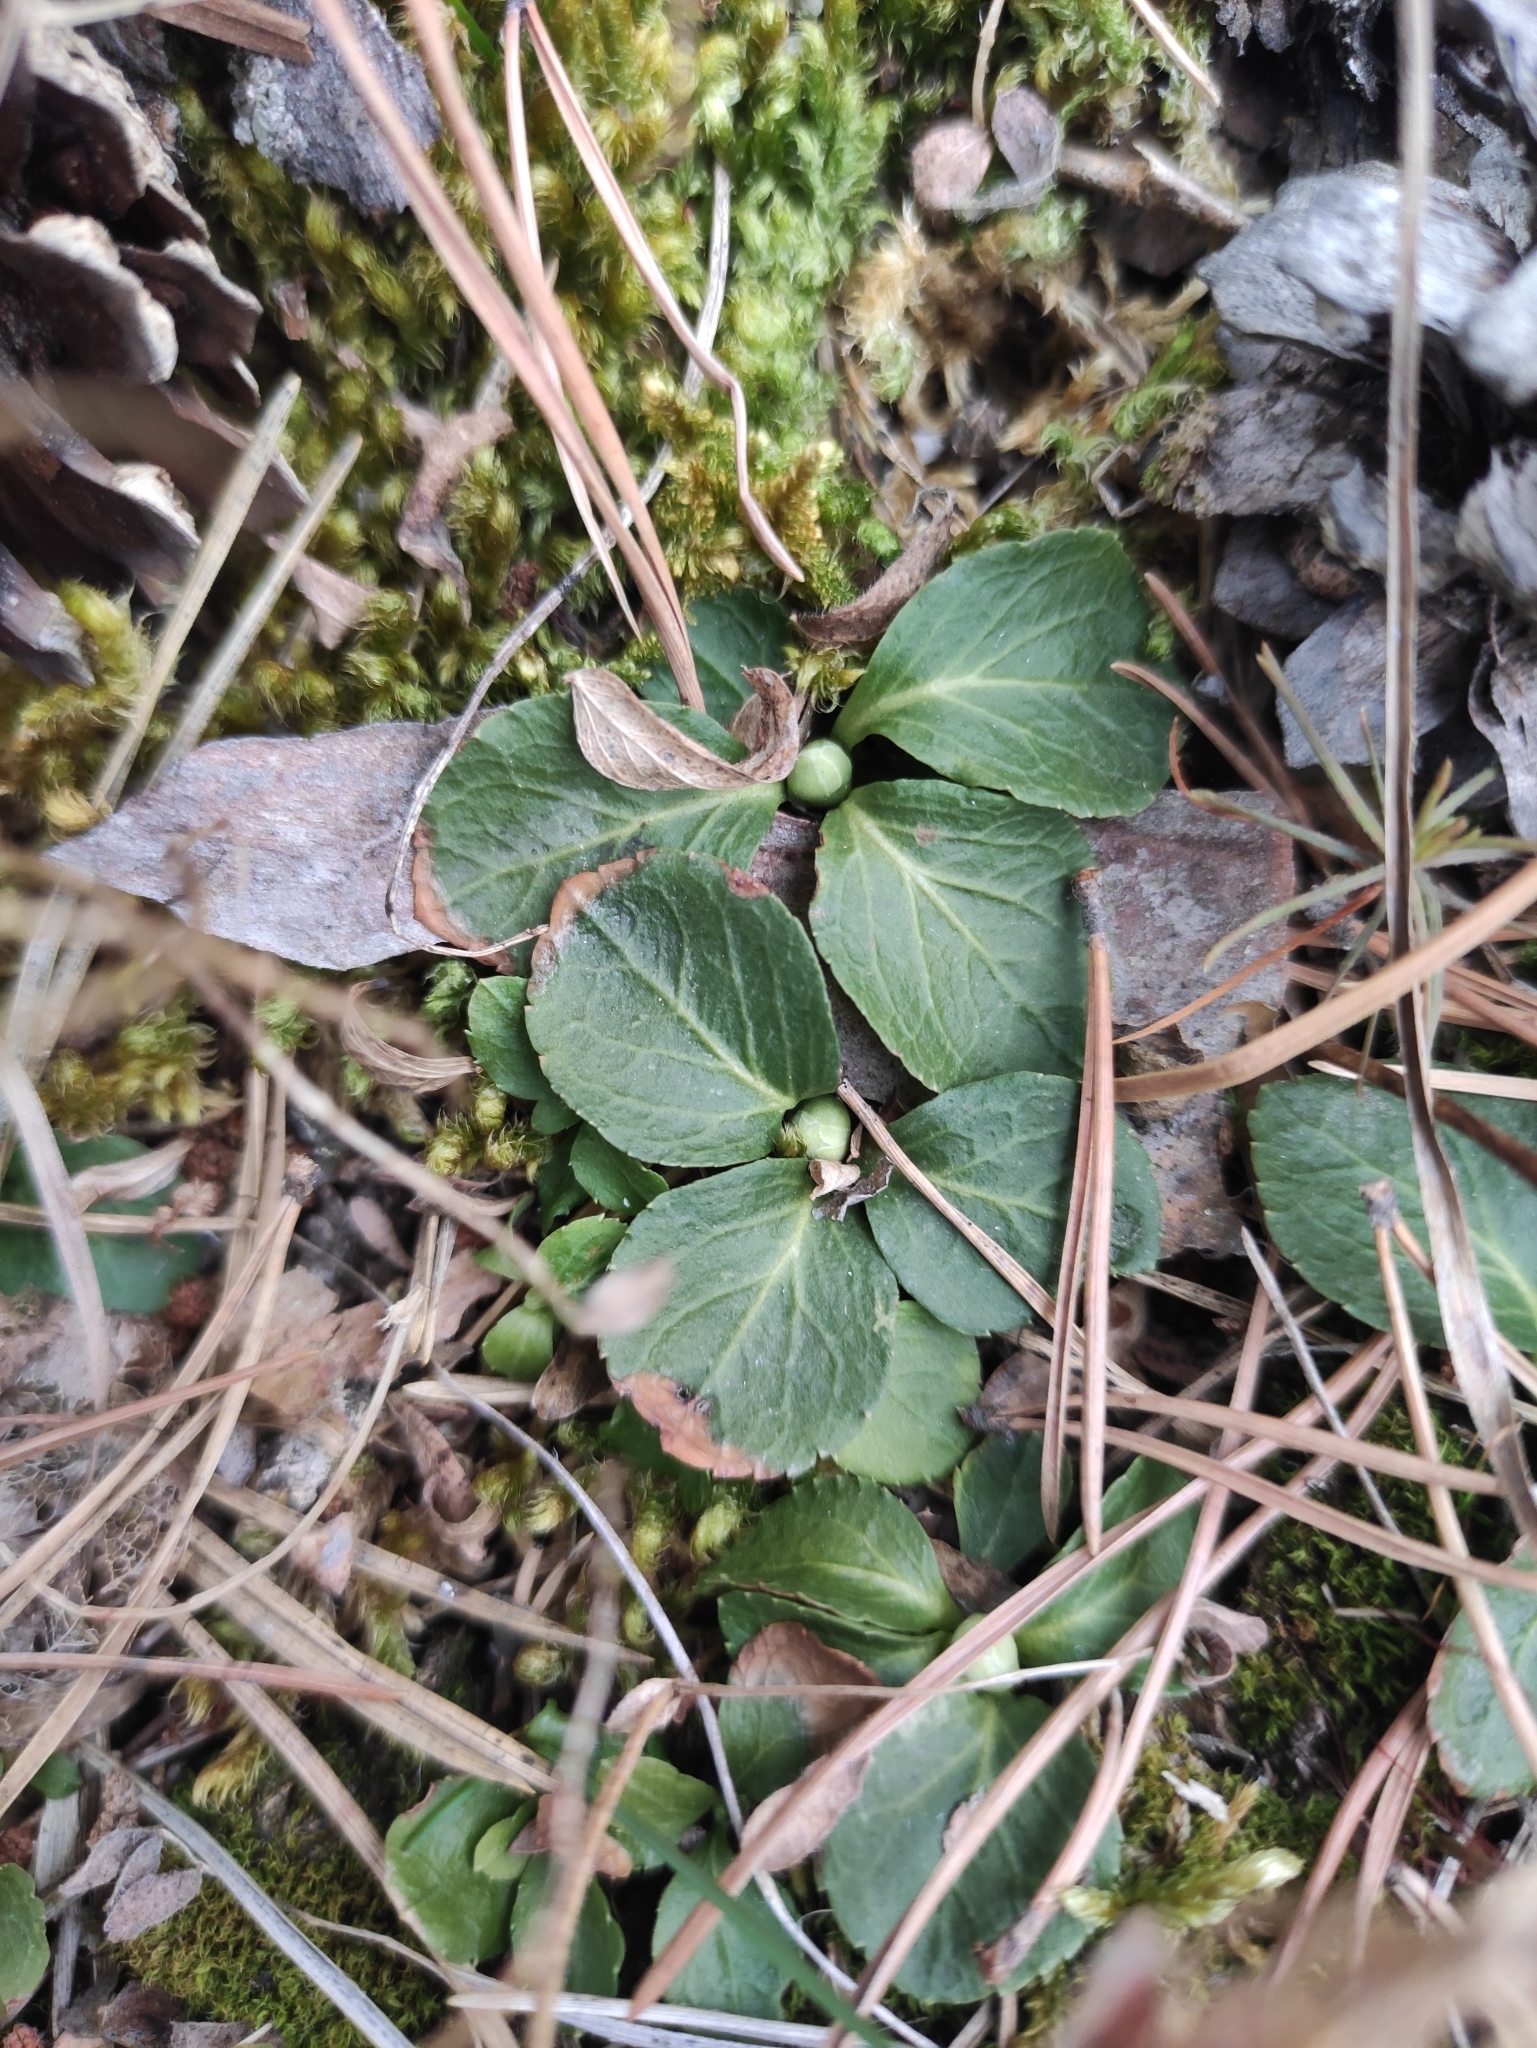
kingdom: Plantae
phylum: Tracheophyta
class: Magnoliopsida
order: Ericales
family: Ericaceae
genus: Moneses
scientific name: Moneses uniflora
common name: One-flowered wintergreen
